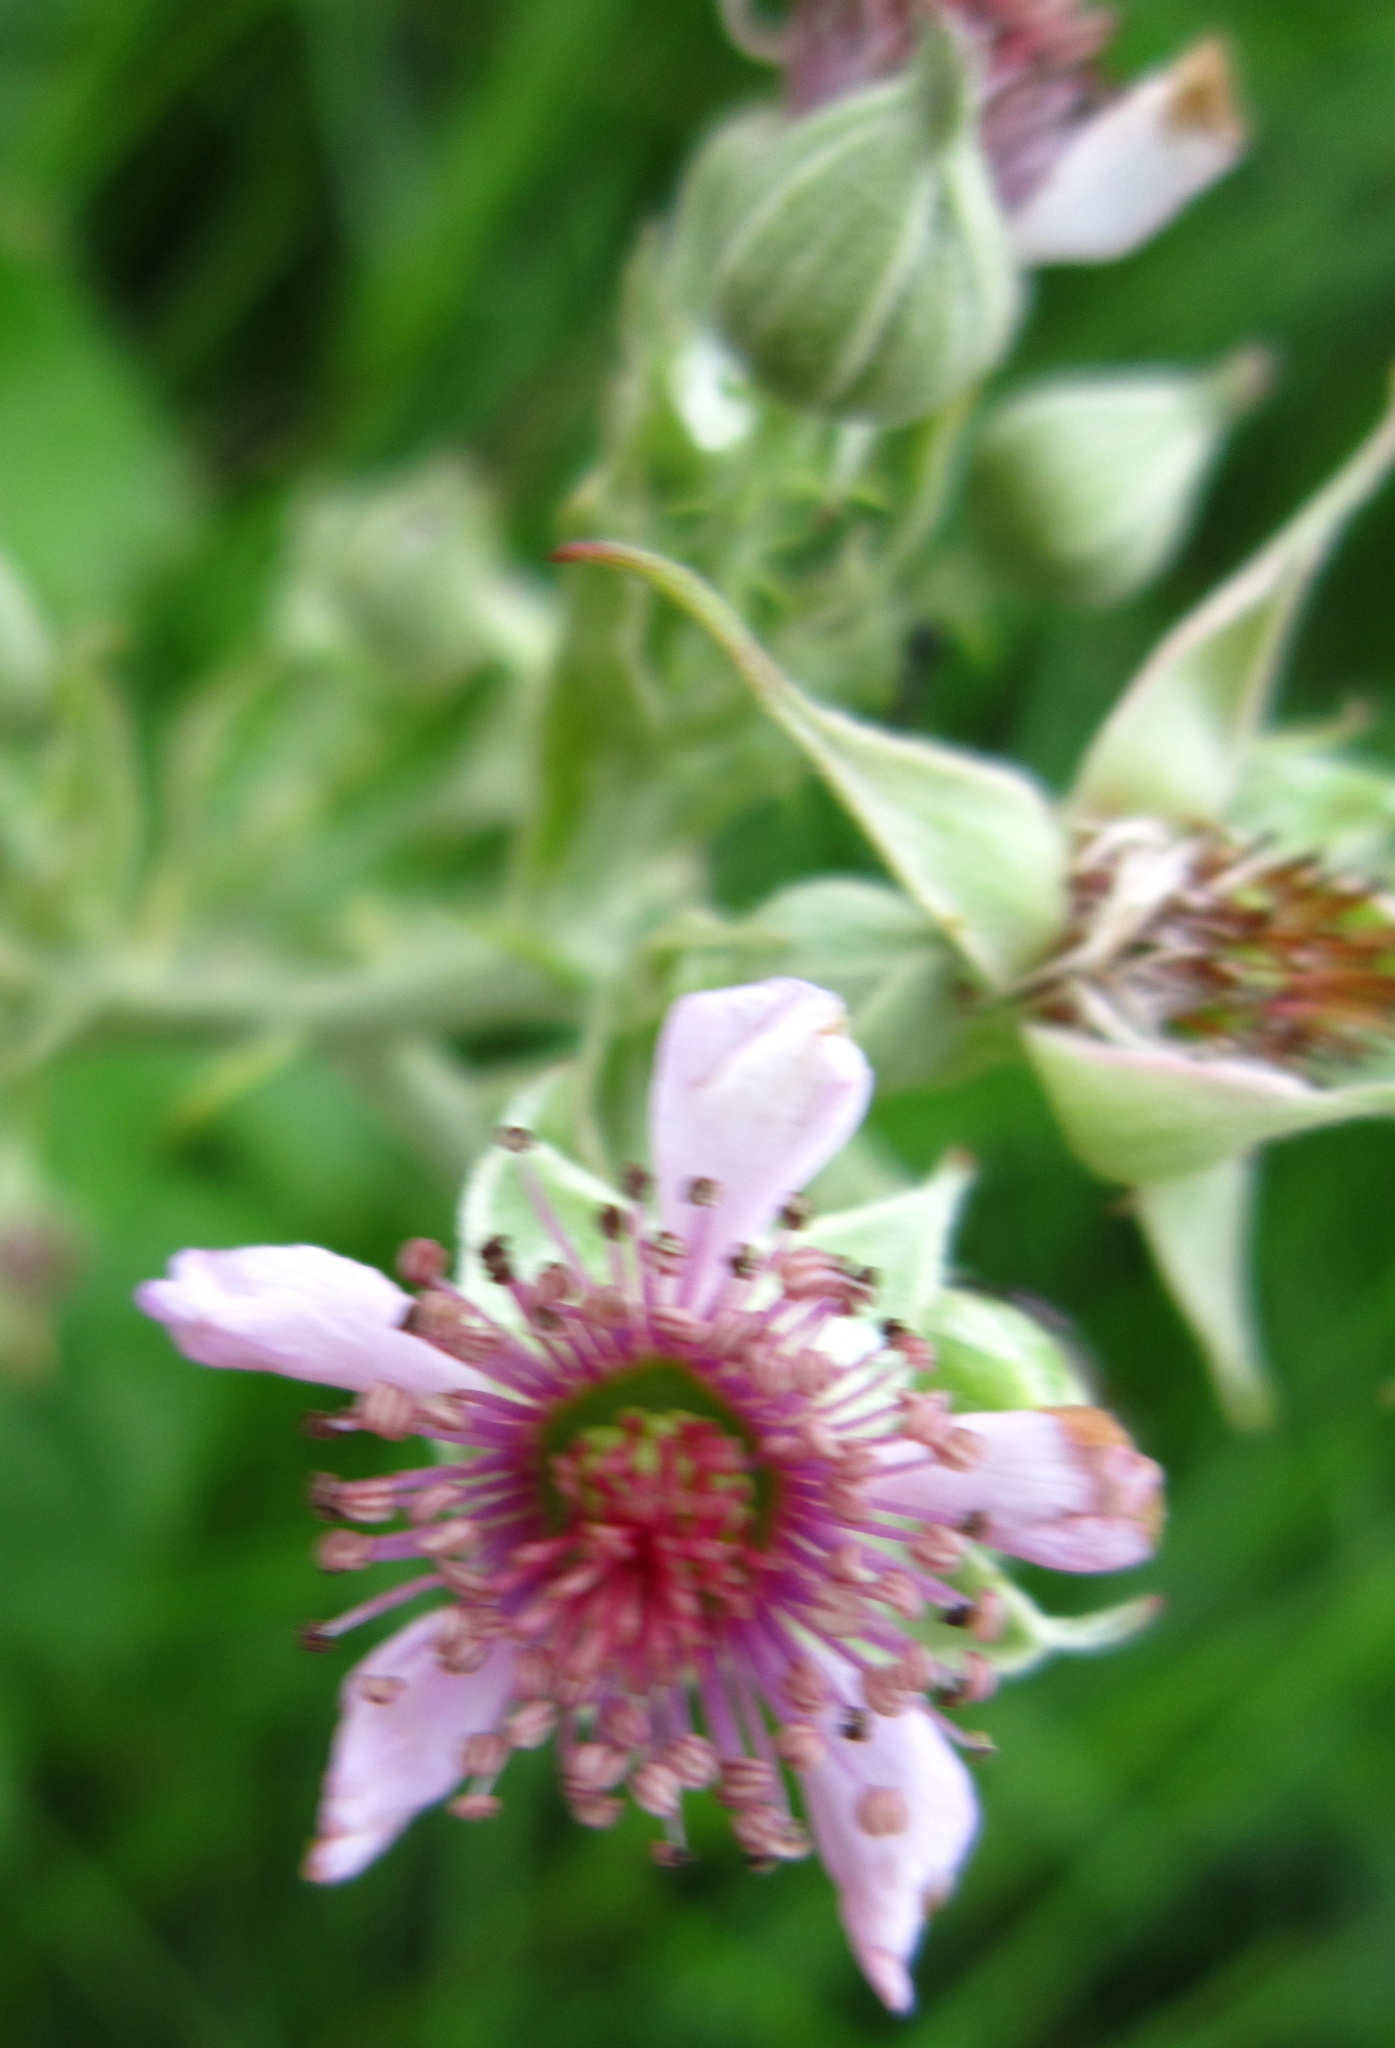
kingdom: Plantae
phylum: Tracheophyta
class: Magnoliopsida
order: Rosales
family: Rosaceae
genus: Rubus
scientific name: Rubus rigidus
